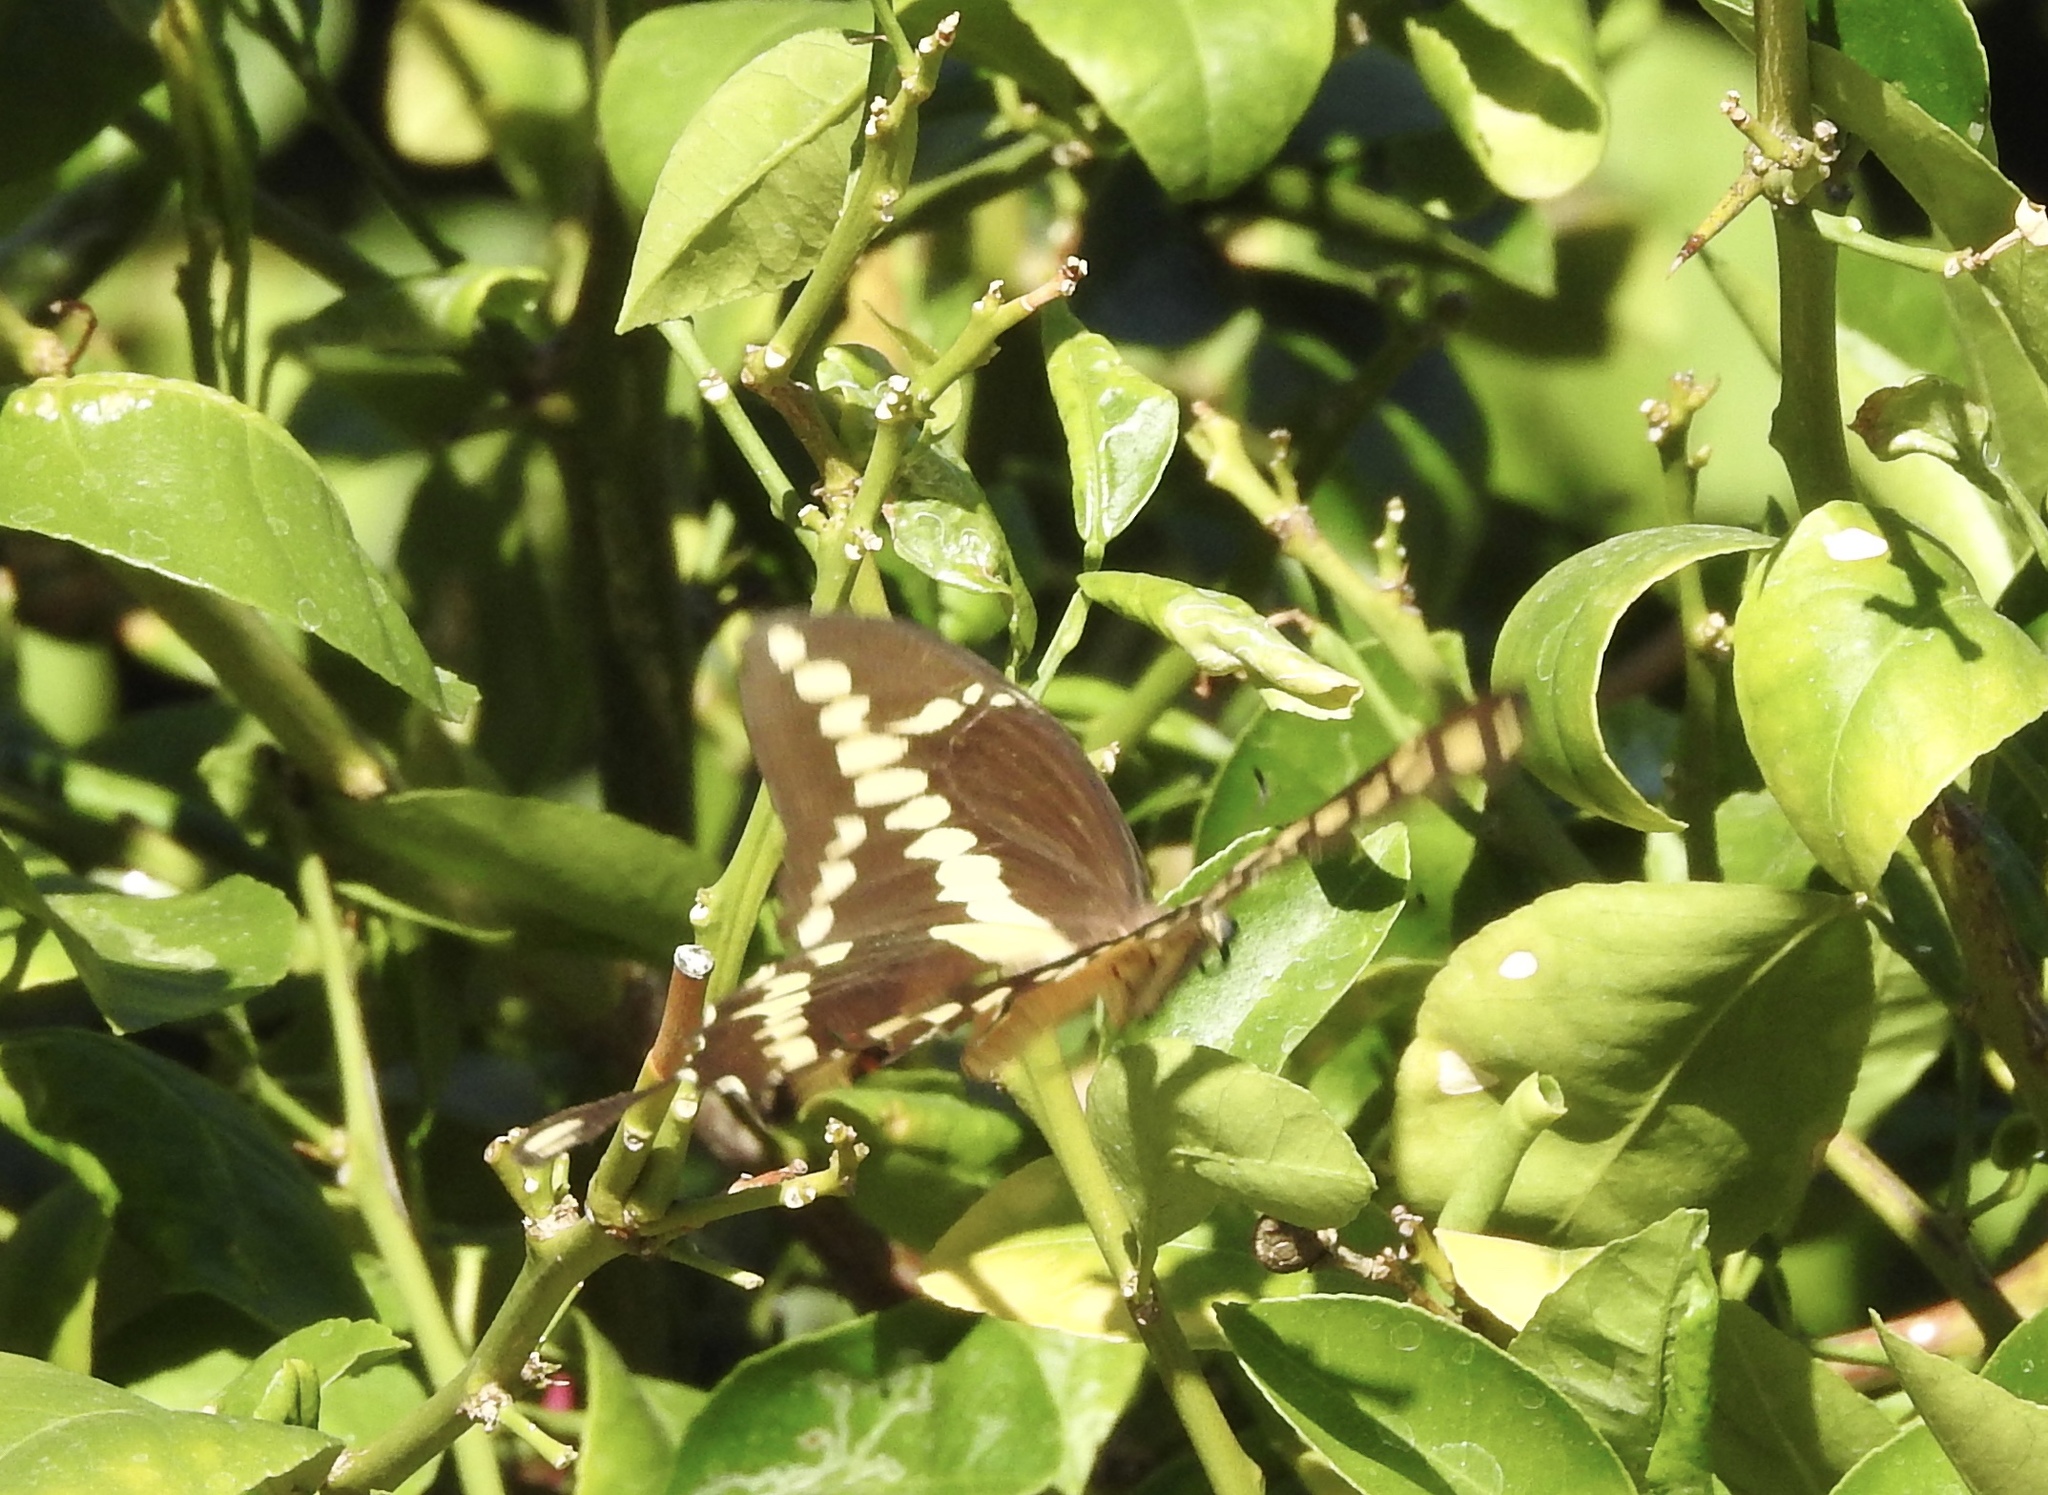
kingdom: Animalia
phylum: Arthropoda
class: Insecta
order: Lepidoptera
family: Papilionidae
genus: Papilio
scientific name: Papilio rumiko
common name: Western giant swallowtail
